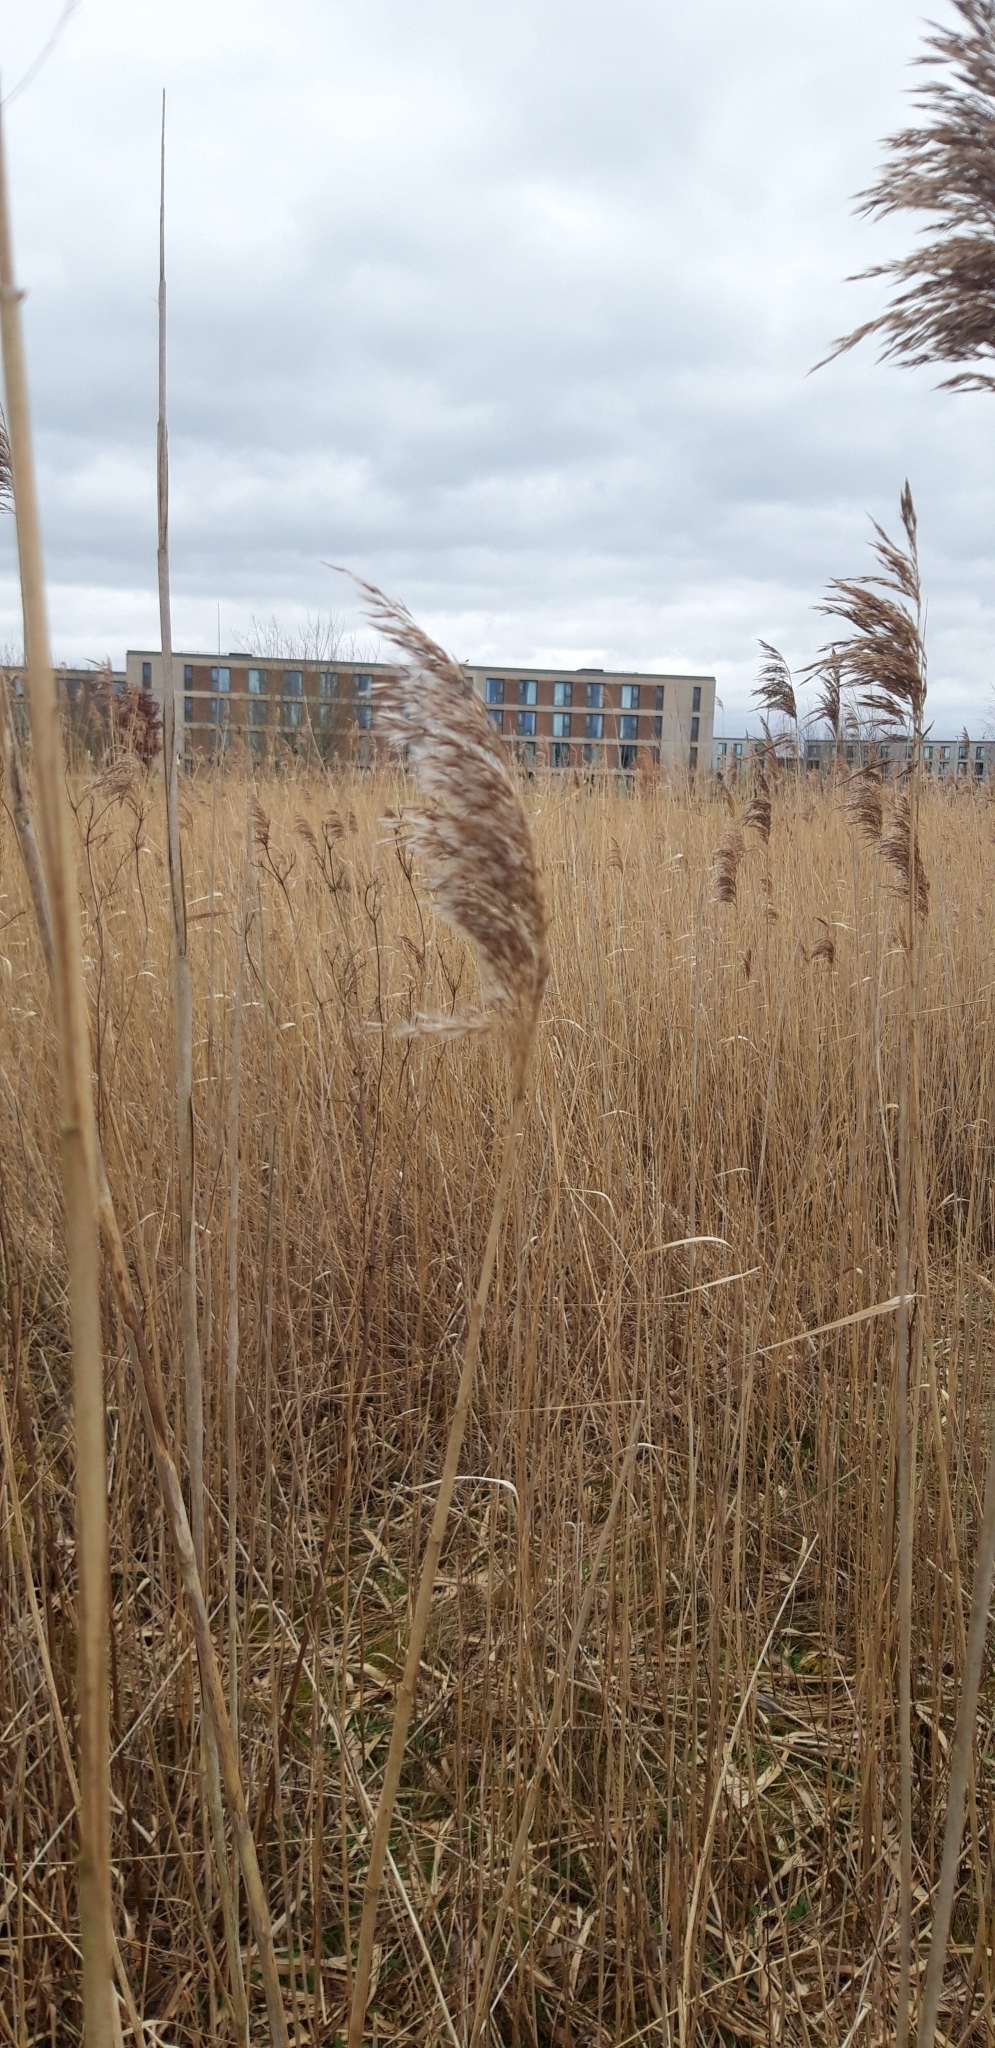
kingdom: Plantae
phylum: Tracheophyta
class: Liliopsida
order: Poales
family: Poaceae
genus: Phragmites
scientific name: Phragmites australis
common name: Common reed
